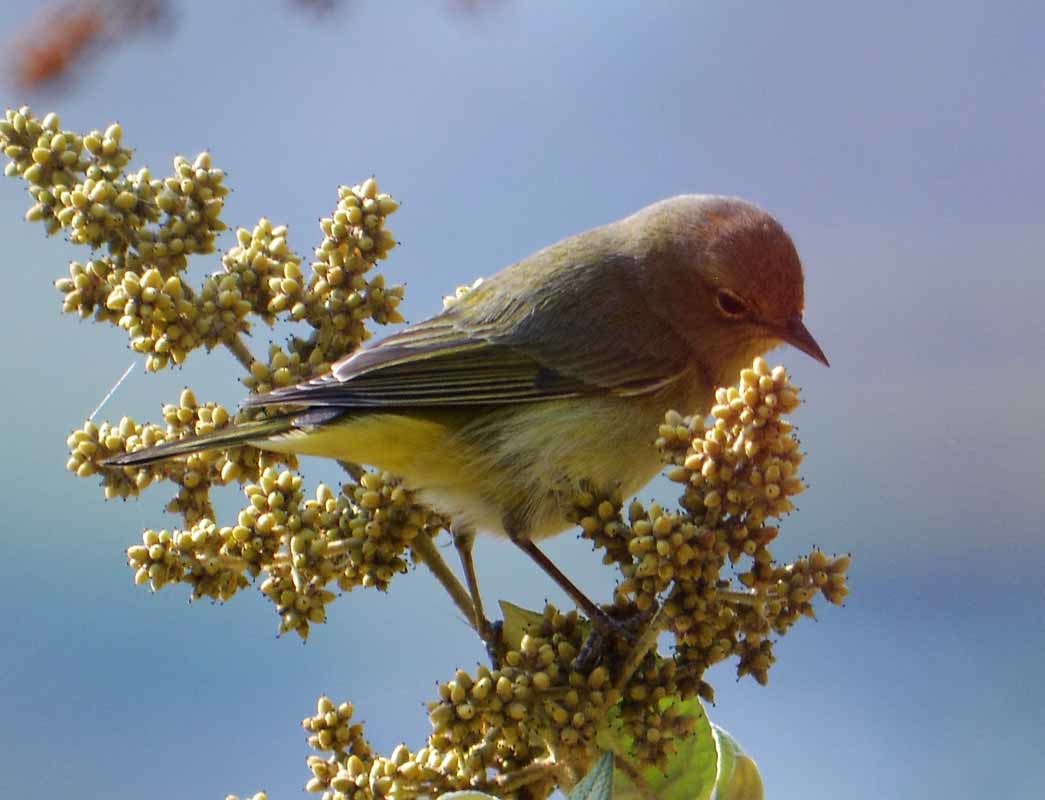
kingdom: Animalia
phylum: Chordata
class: Aves
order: Passeriformes
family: Parulidae
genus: Leiothlypis
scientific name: Leiothlypis celata
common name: Orange-crowned warbler
